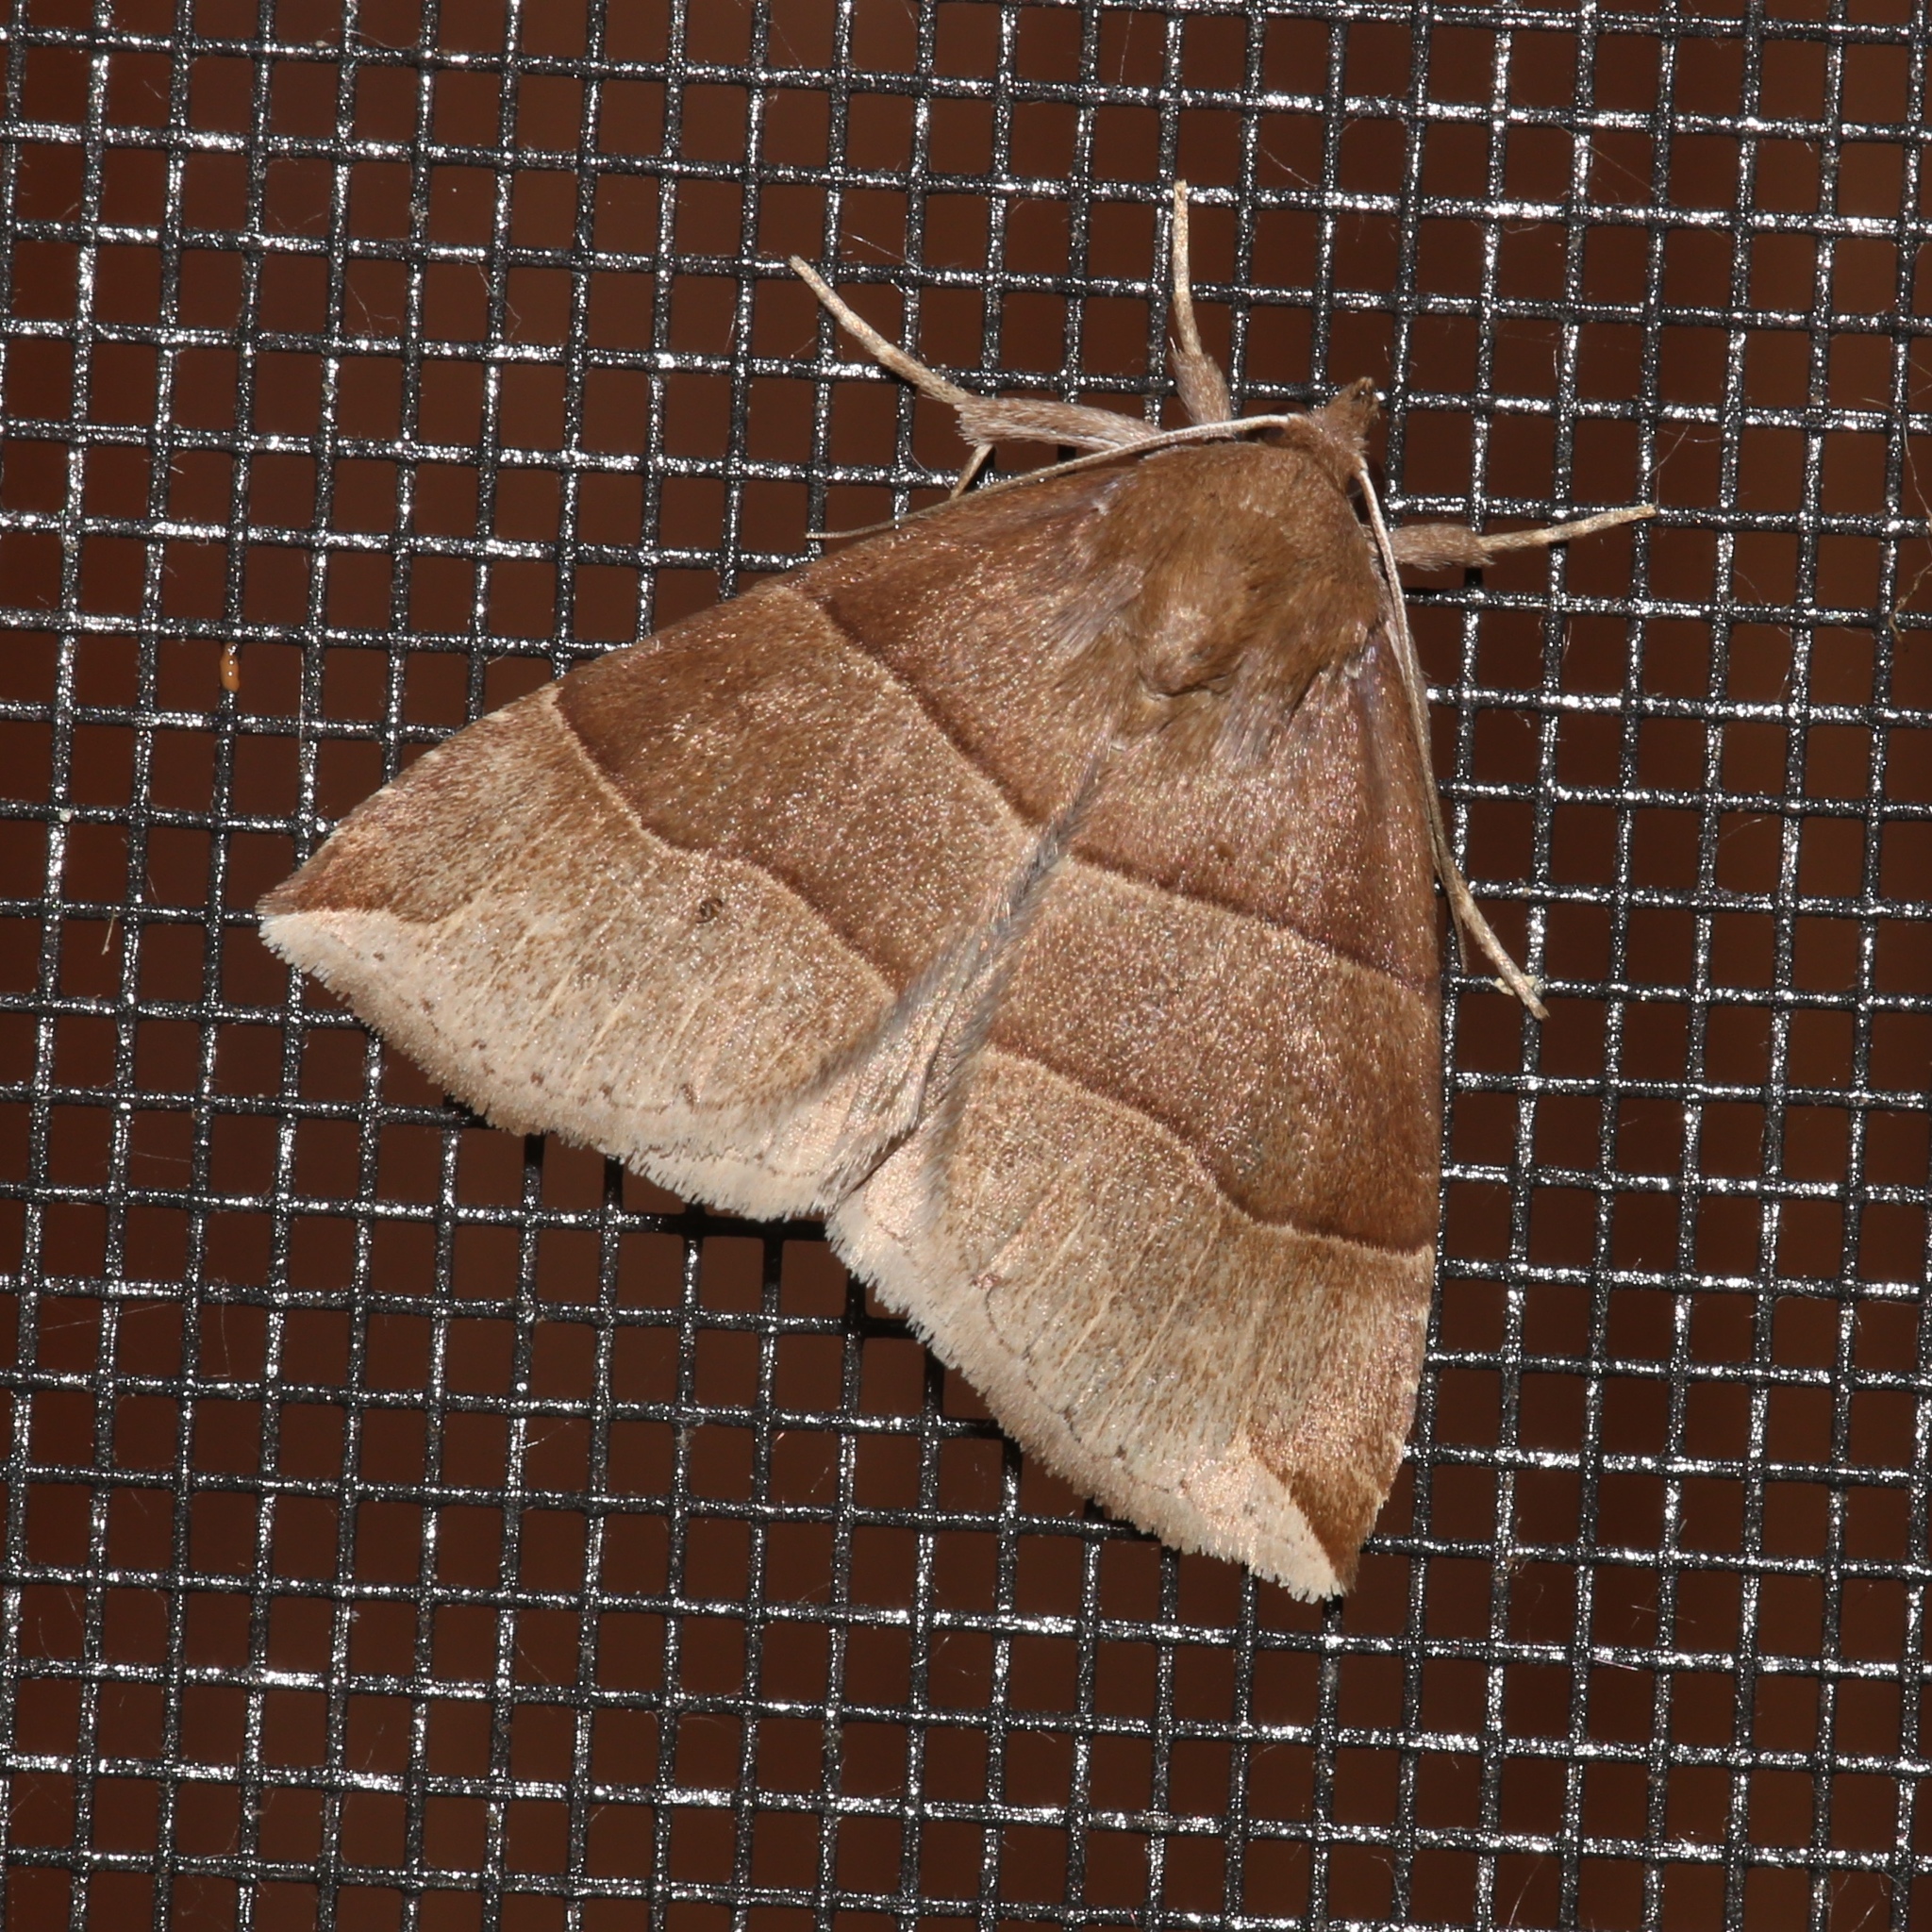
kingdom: Animalia
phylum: Arthropoda
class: Insecta
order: Lepidoptera
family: Erebidae
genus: Parallelia
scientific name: Parallelia bistriaris
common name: Maple looper moth
